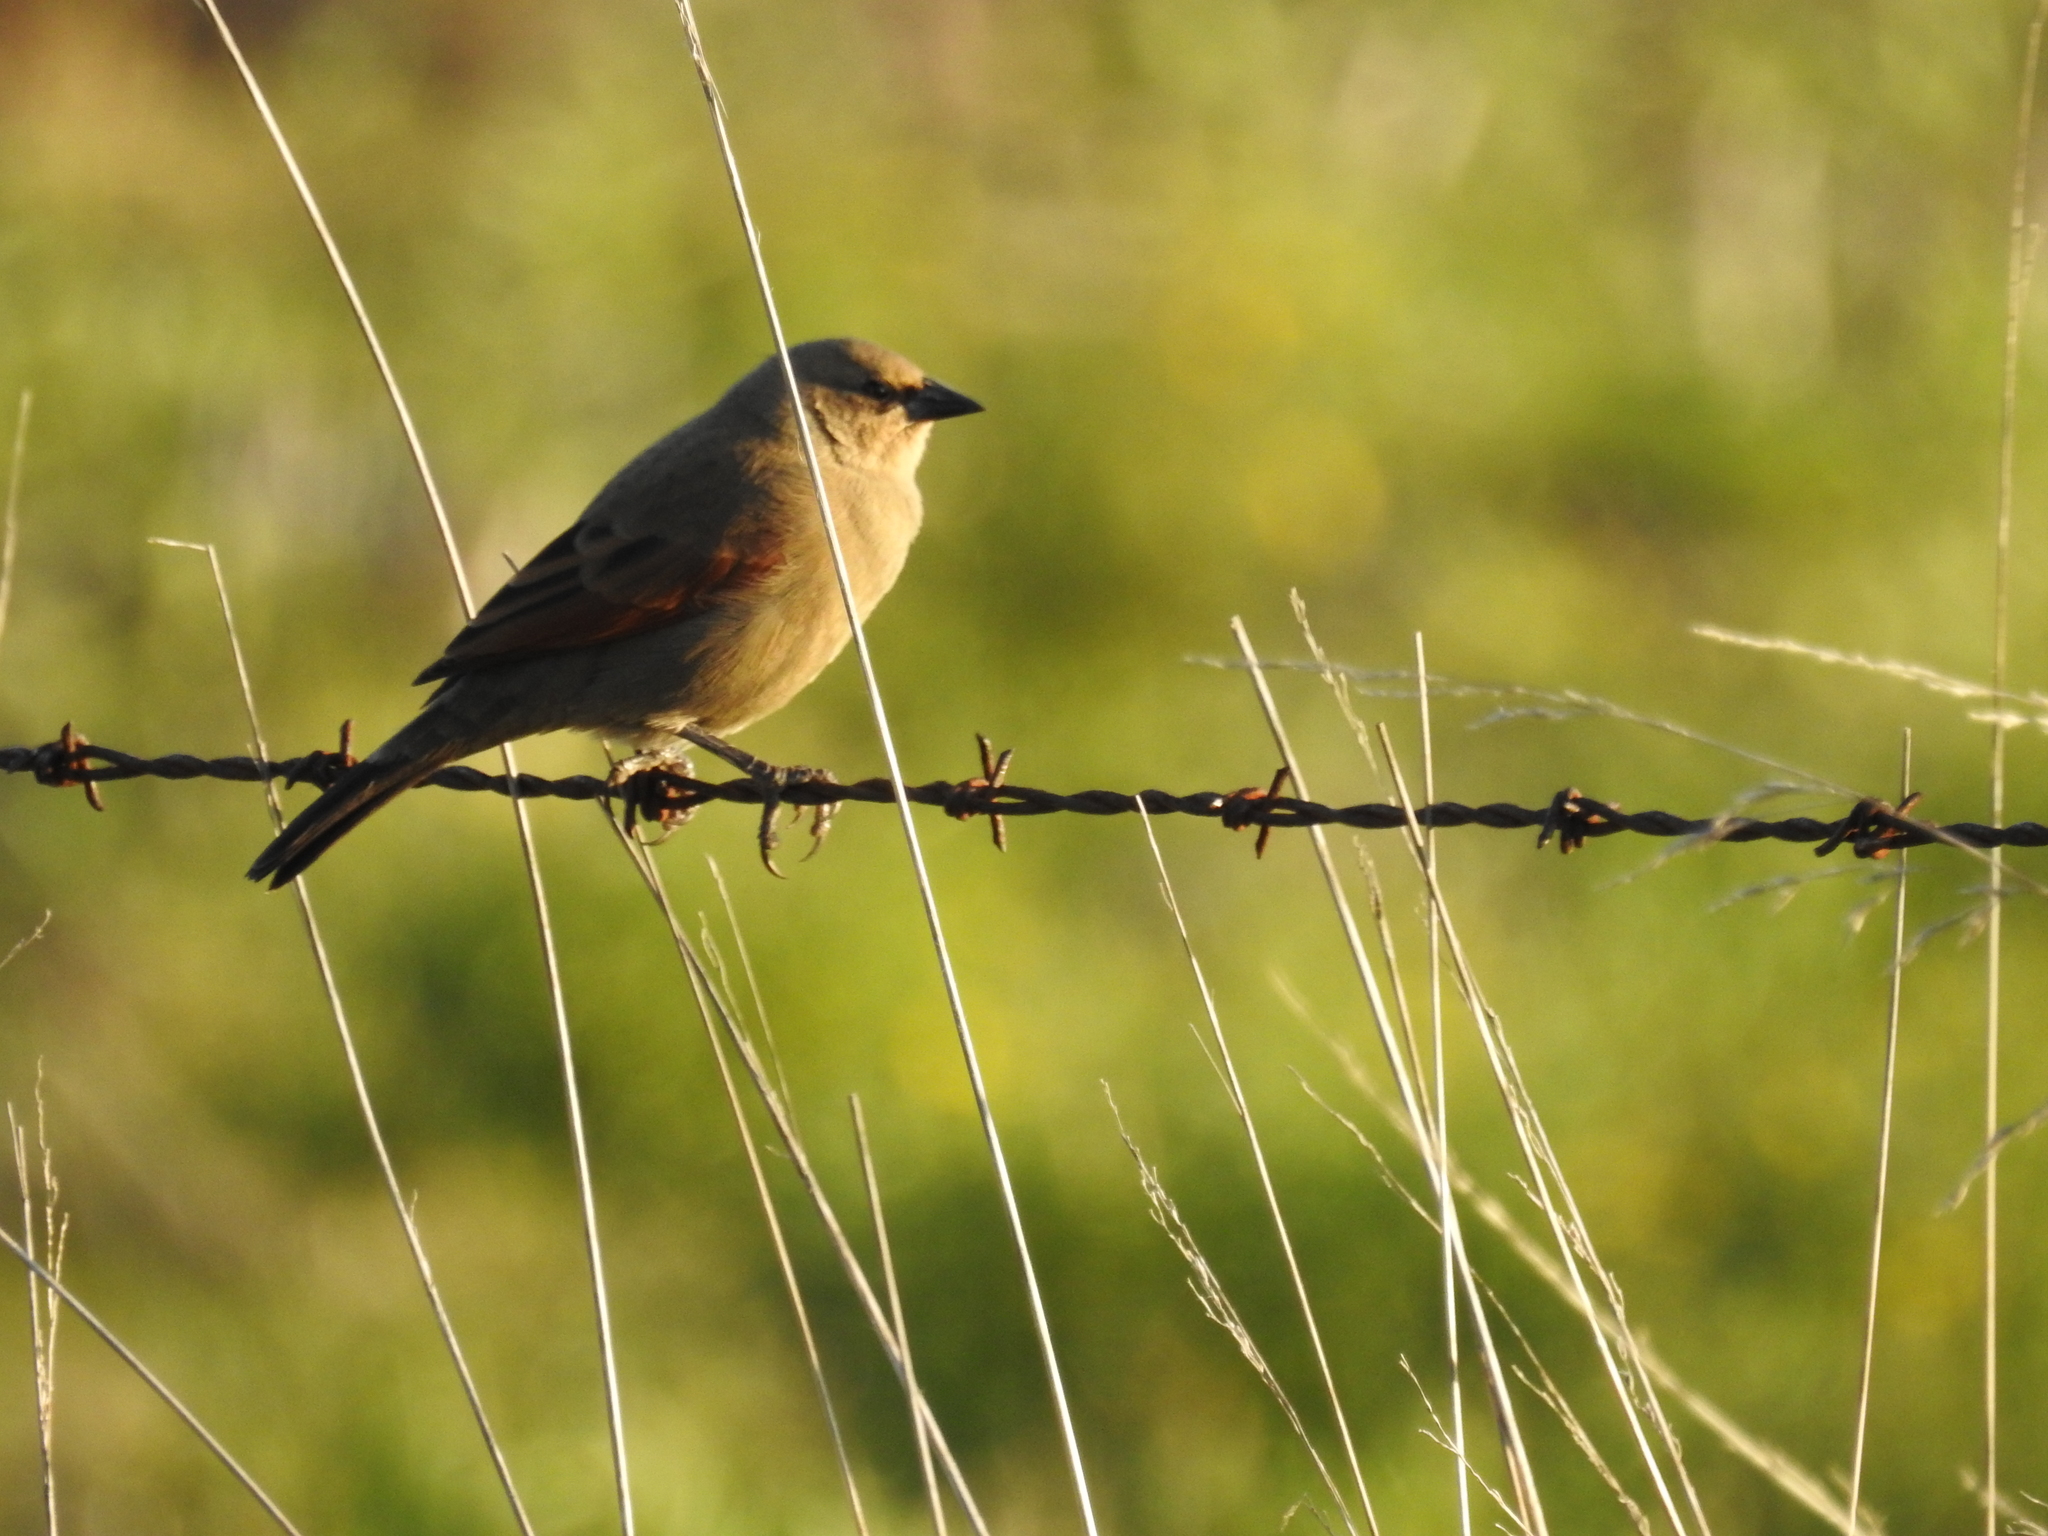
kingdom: Animalia
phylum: Chordata
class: Aves
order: Passeriformes
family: Icteridae
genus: Agelaioides
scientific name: Agelaioides badius
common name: Baywing
